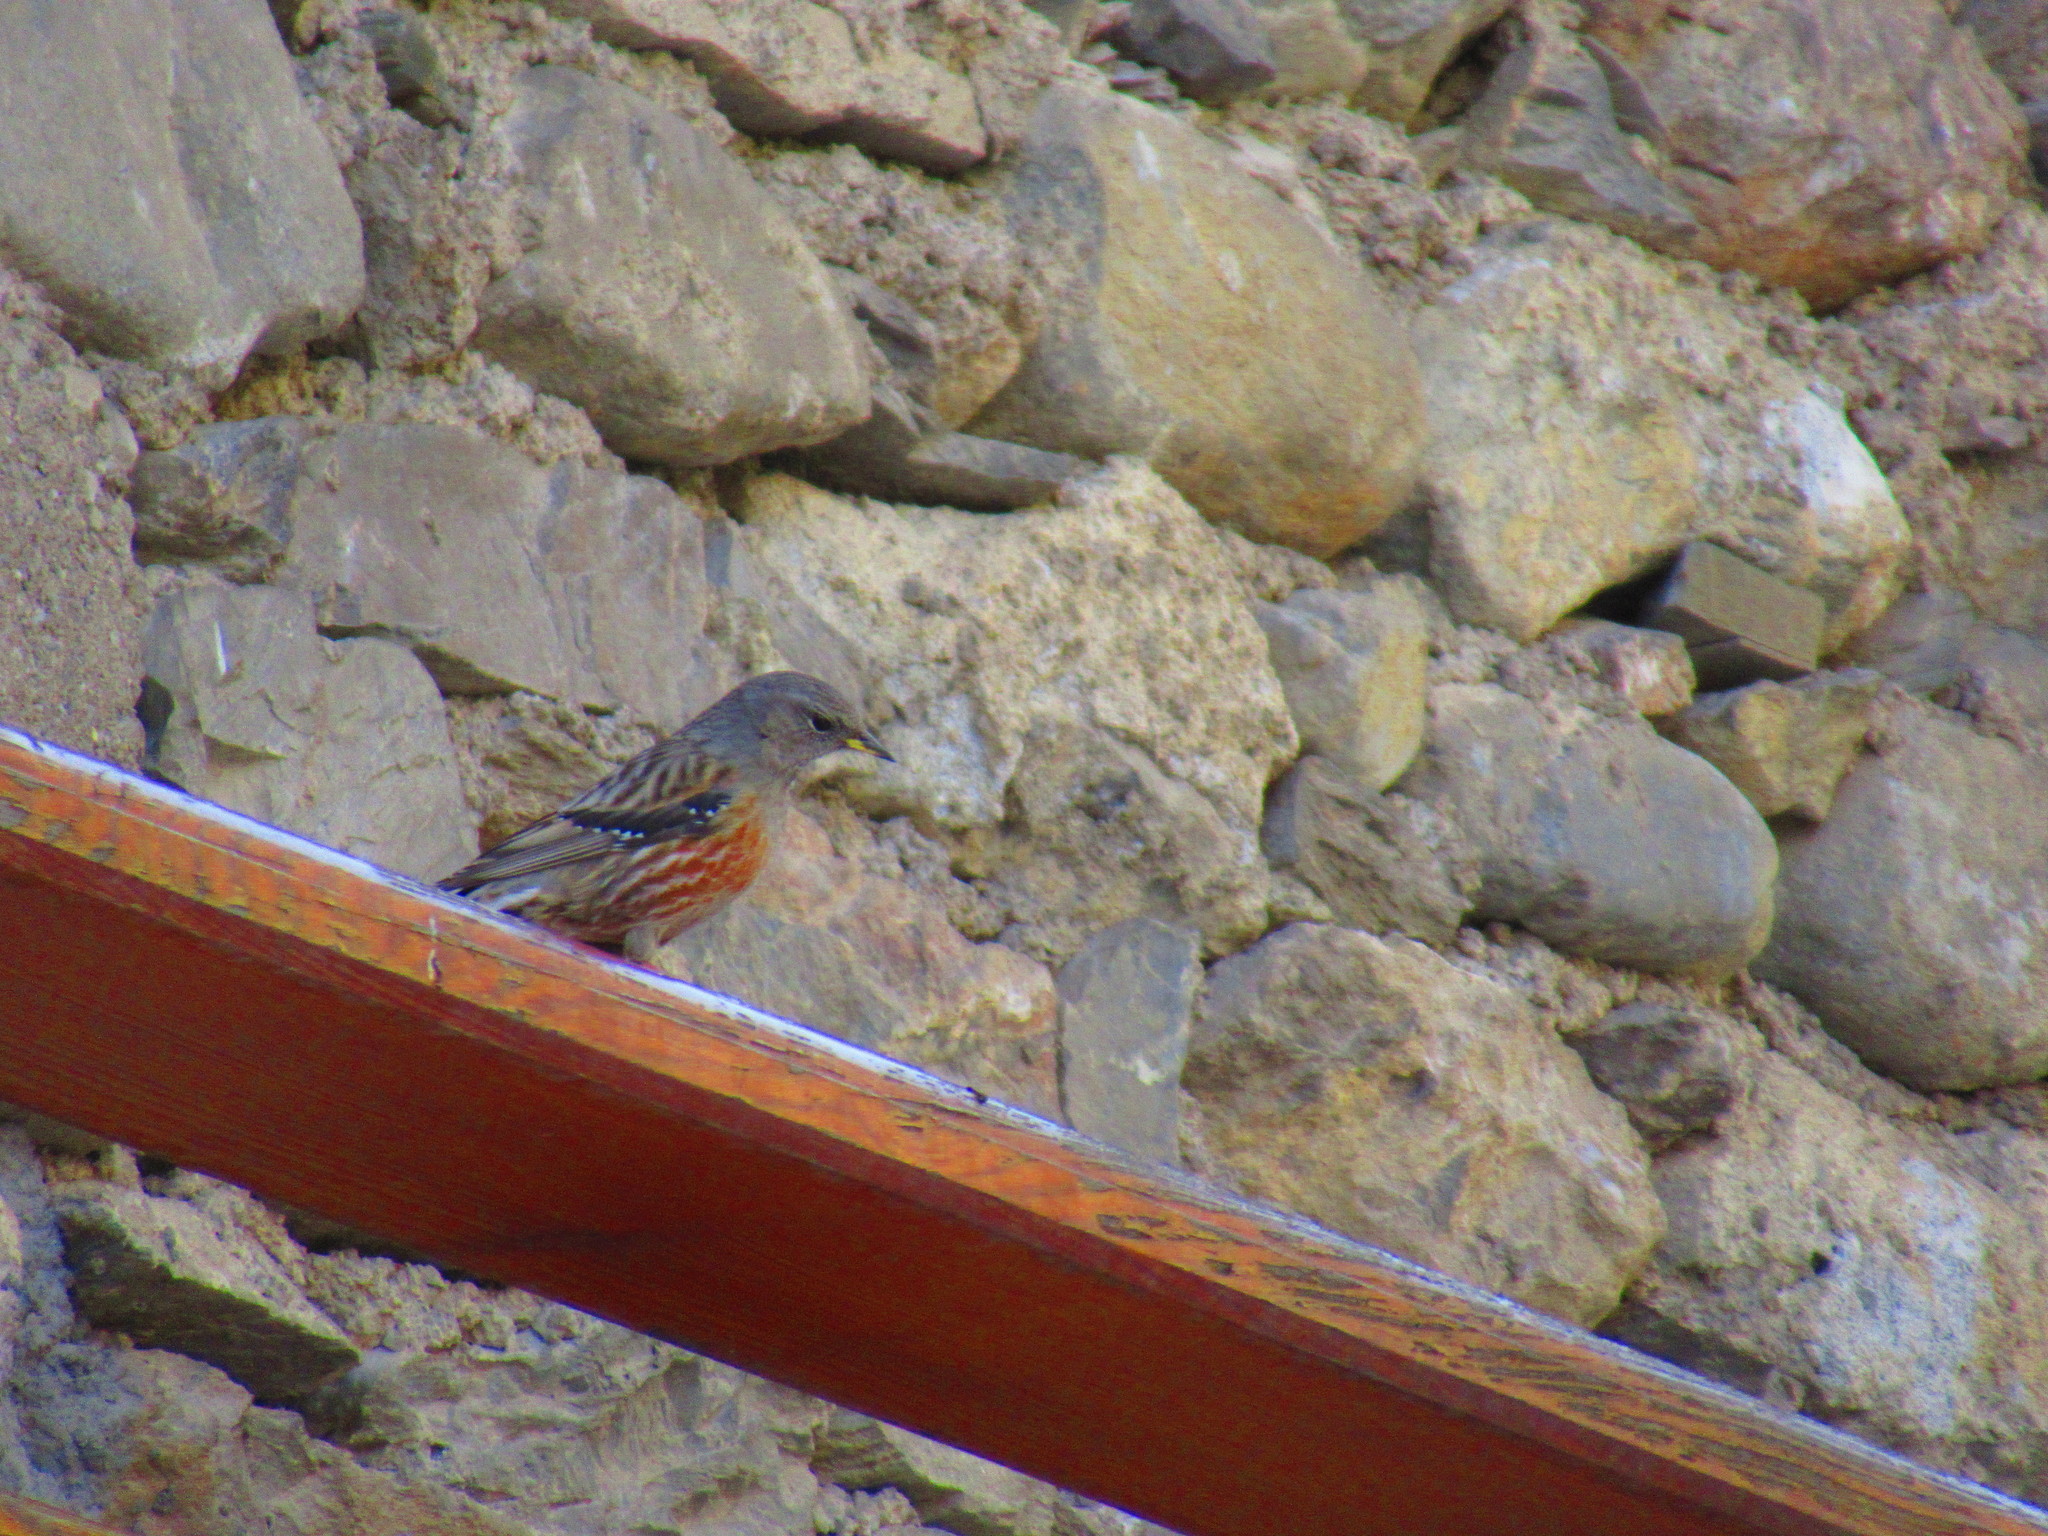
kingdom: Animalia
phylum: Chordata
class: Aves
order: Passeriformes
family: Prunellidae
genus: Prunella
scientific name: Prunella collaris
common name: Alpine accentor
